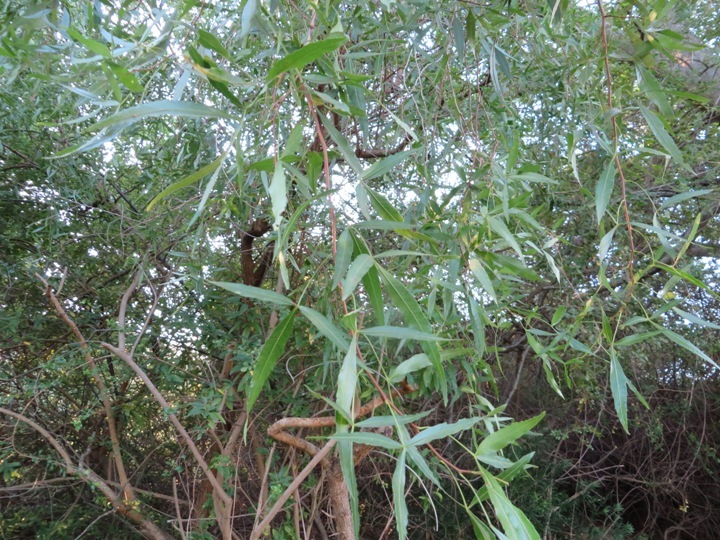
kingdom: Plantae
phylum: Tracheophyta
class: Magnoliopsida
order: Sapindales
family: Anacardiaceae
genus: Searsia
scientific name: Searsia pendulina
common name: White karee
